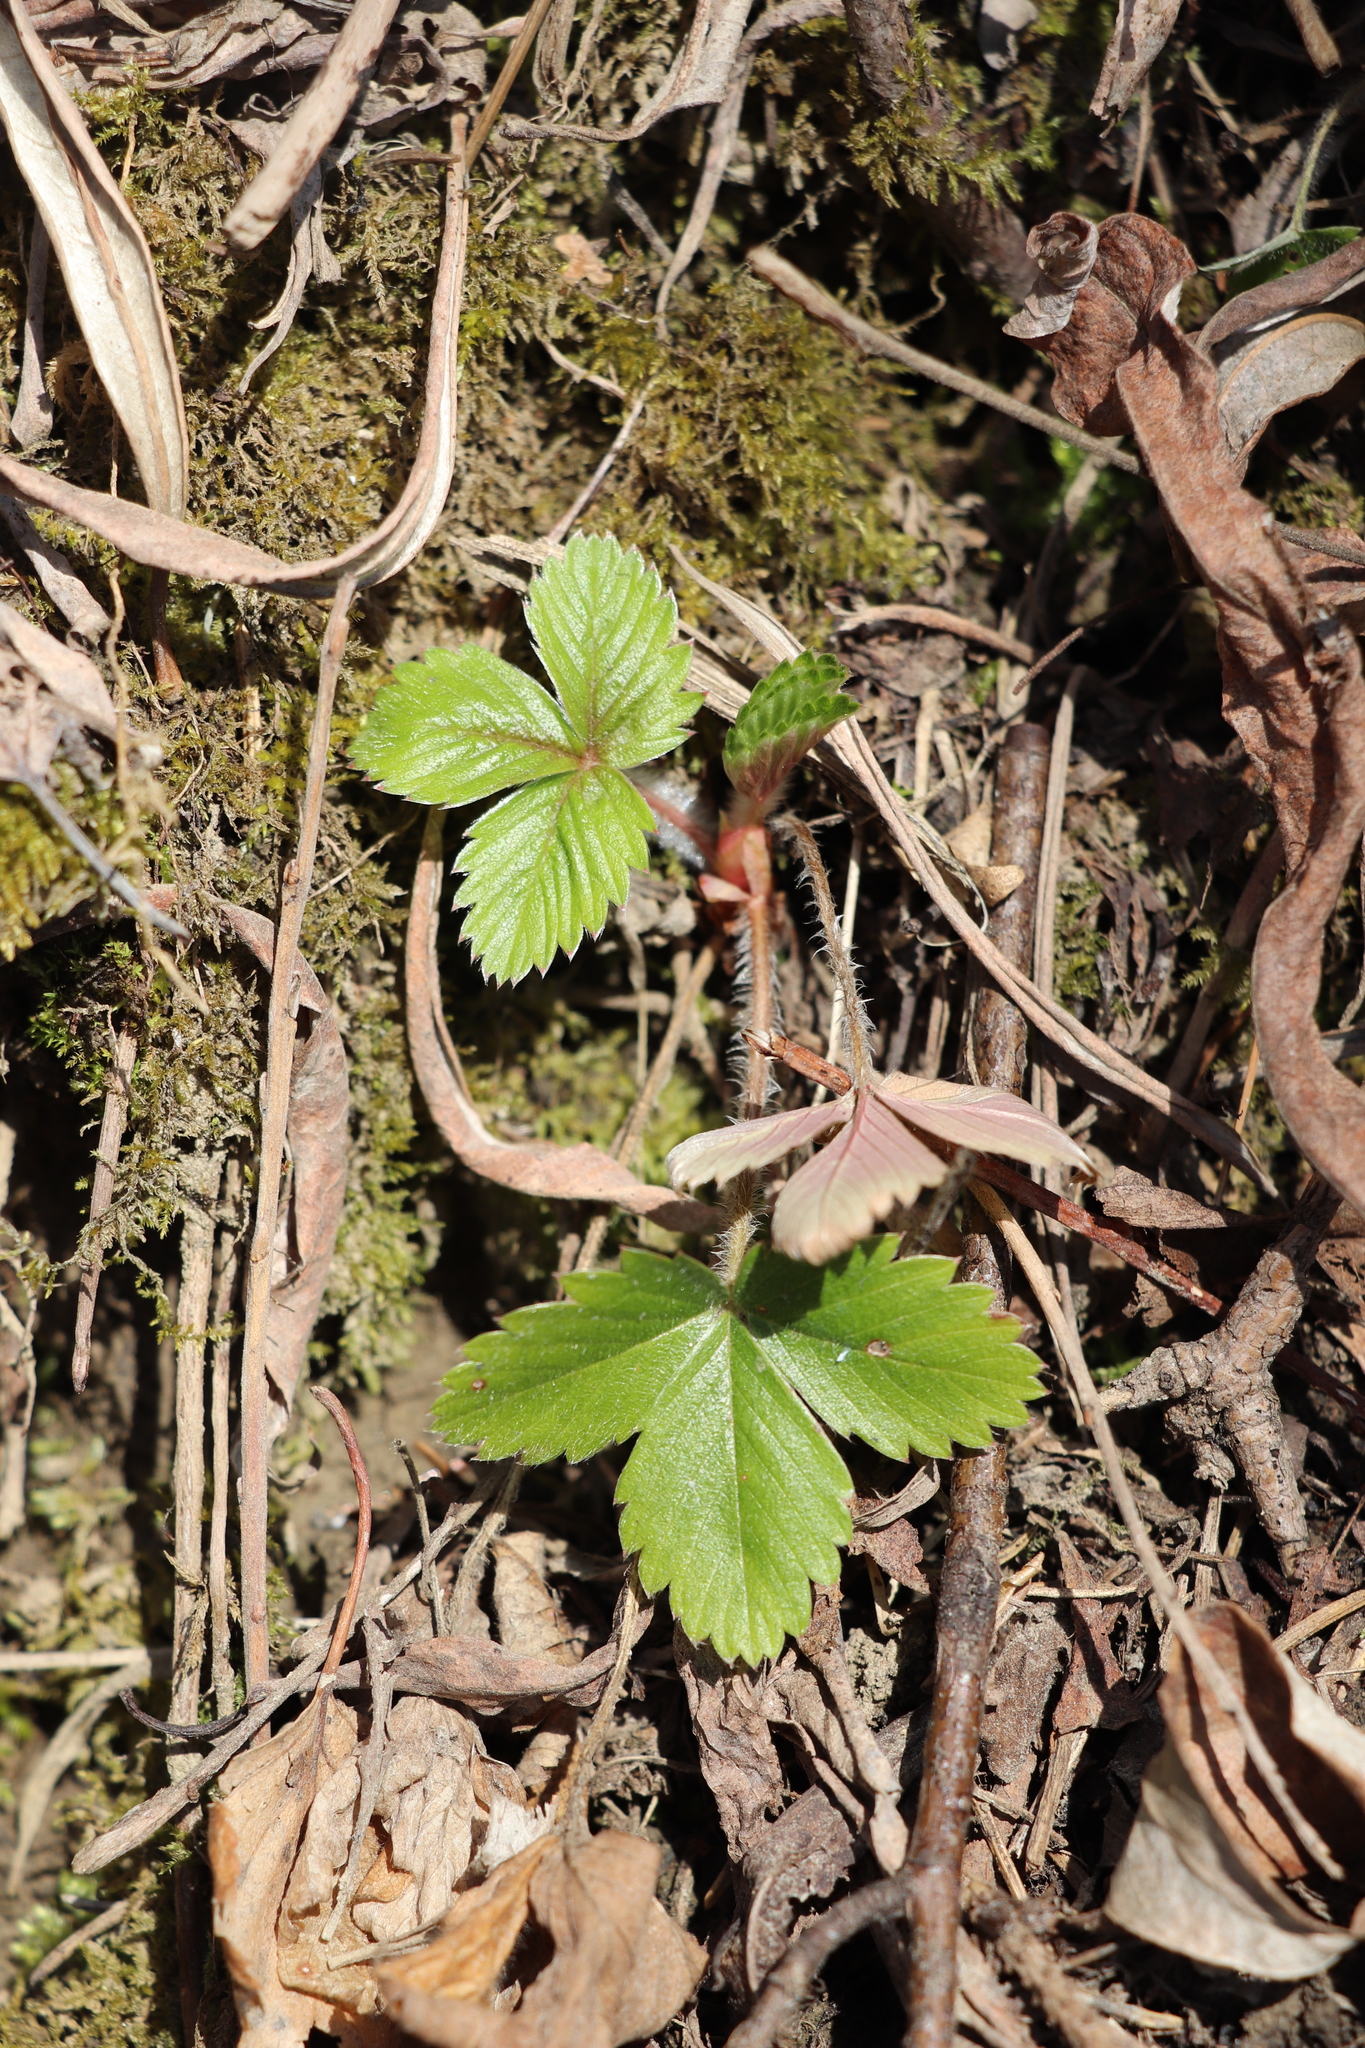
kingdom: Plantae
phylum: Tracheophyta
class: Magnoliopsida
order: Rosales
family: Rosaceae
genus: Fragaria
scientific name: Fragaria vesca
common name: Wild strawberry
